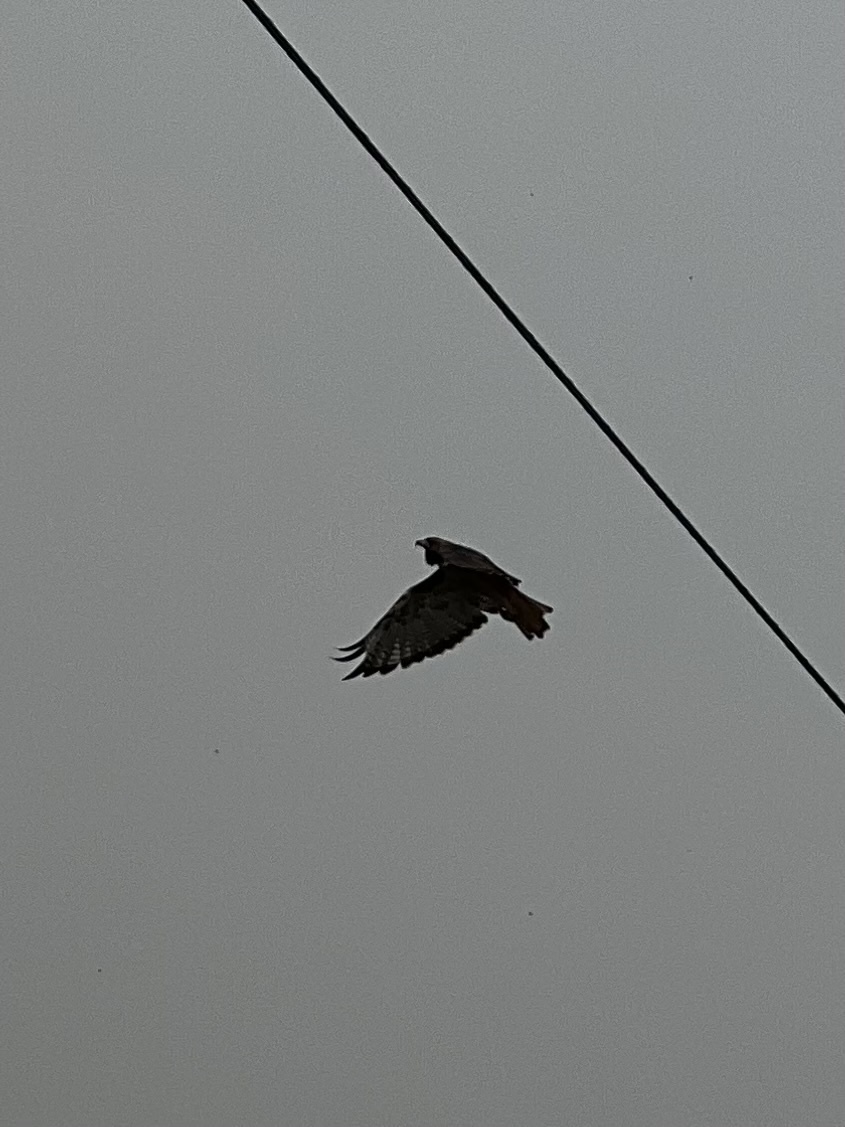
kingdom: Animalia
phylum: Chordata
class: Aves
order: Accipitriformes
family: Accipitridae
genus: Buteo
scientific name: Buteo jamaicensis
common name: Red-tailed hawk
